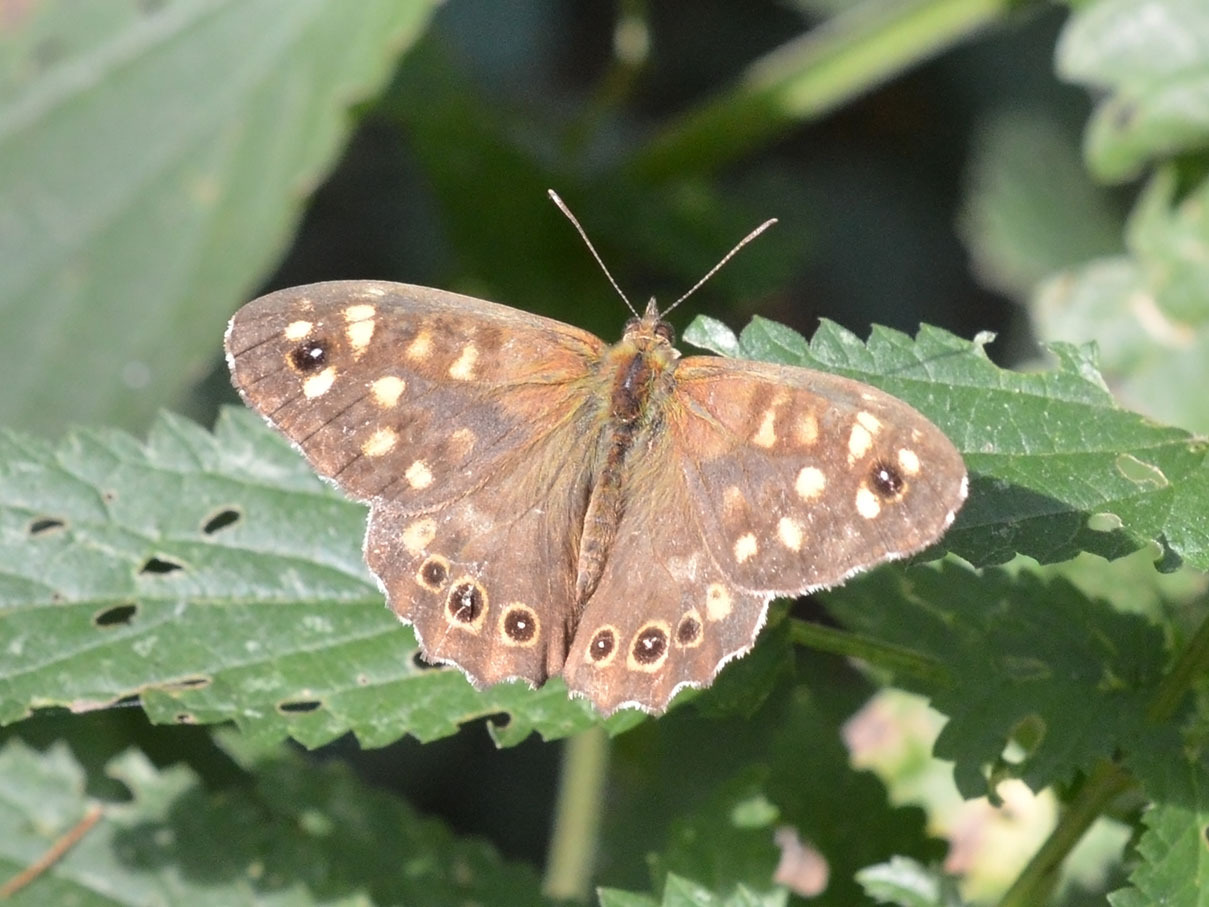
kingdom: Animalia
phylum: Arthropoda
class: Insecta
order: Lepidoptera
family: Nymphalidae
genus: Pararge
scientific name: Pararge aegeria
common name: Speckled wood
